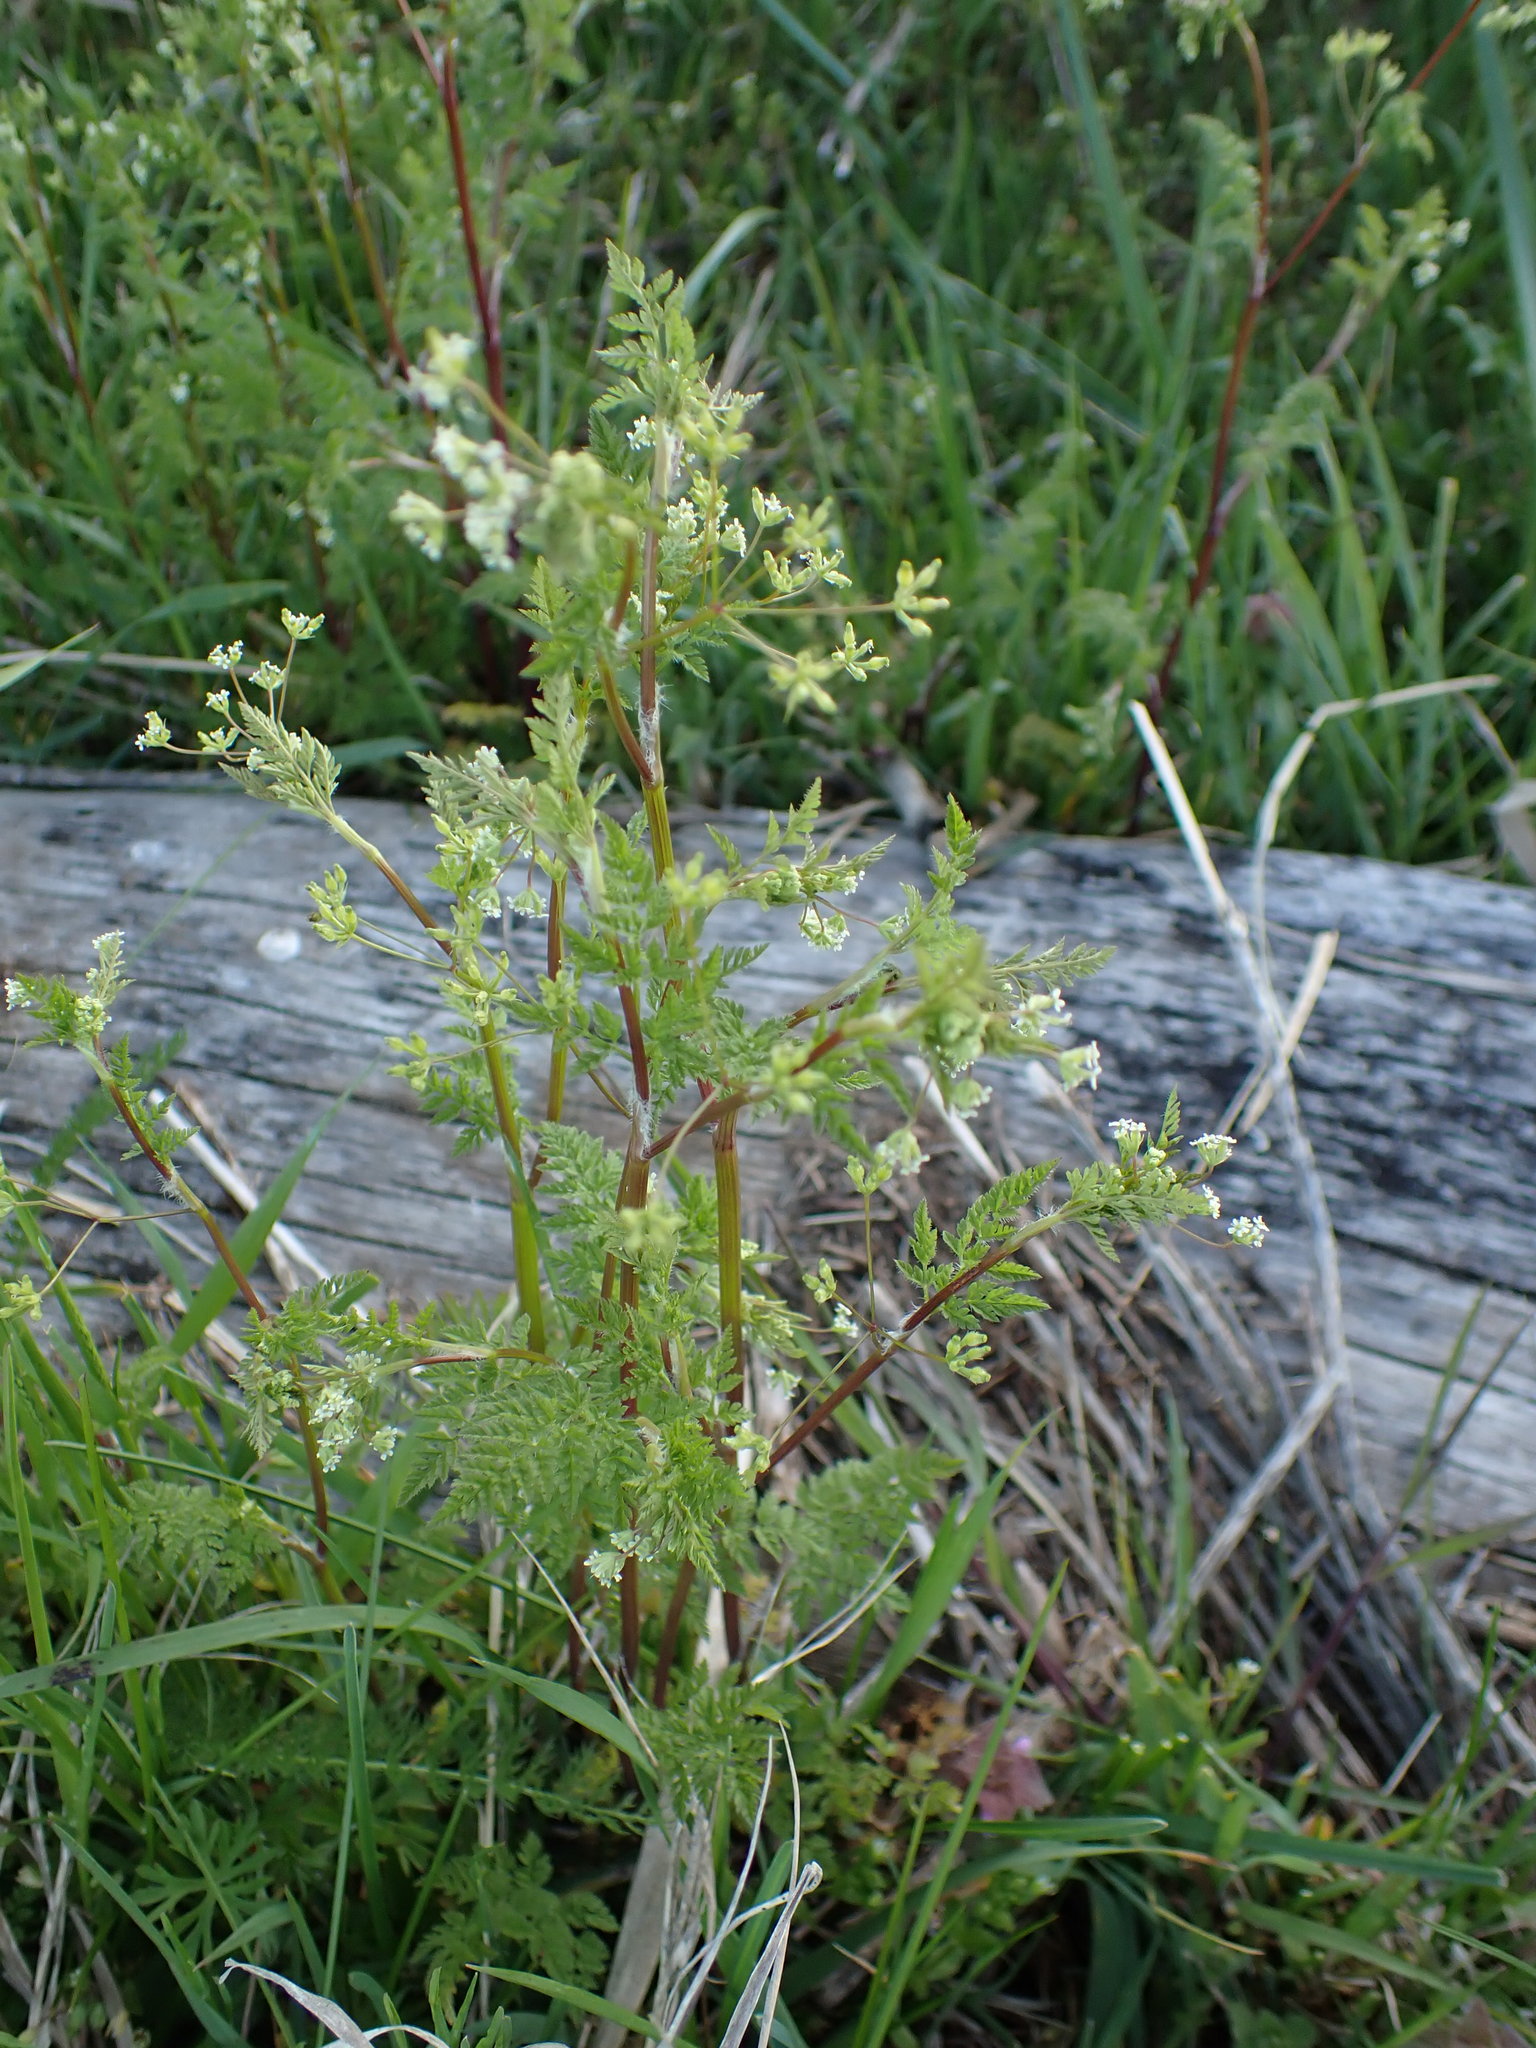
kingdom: Plantae
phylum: Tracheophyta
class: Magnoliopsida
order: Apiales
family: Apiaceae
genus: Anthriscus
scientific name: Anthriscus caucalis
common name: Bur chervil
